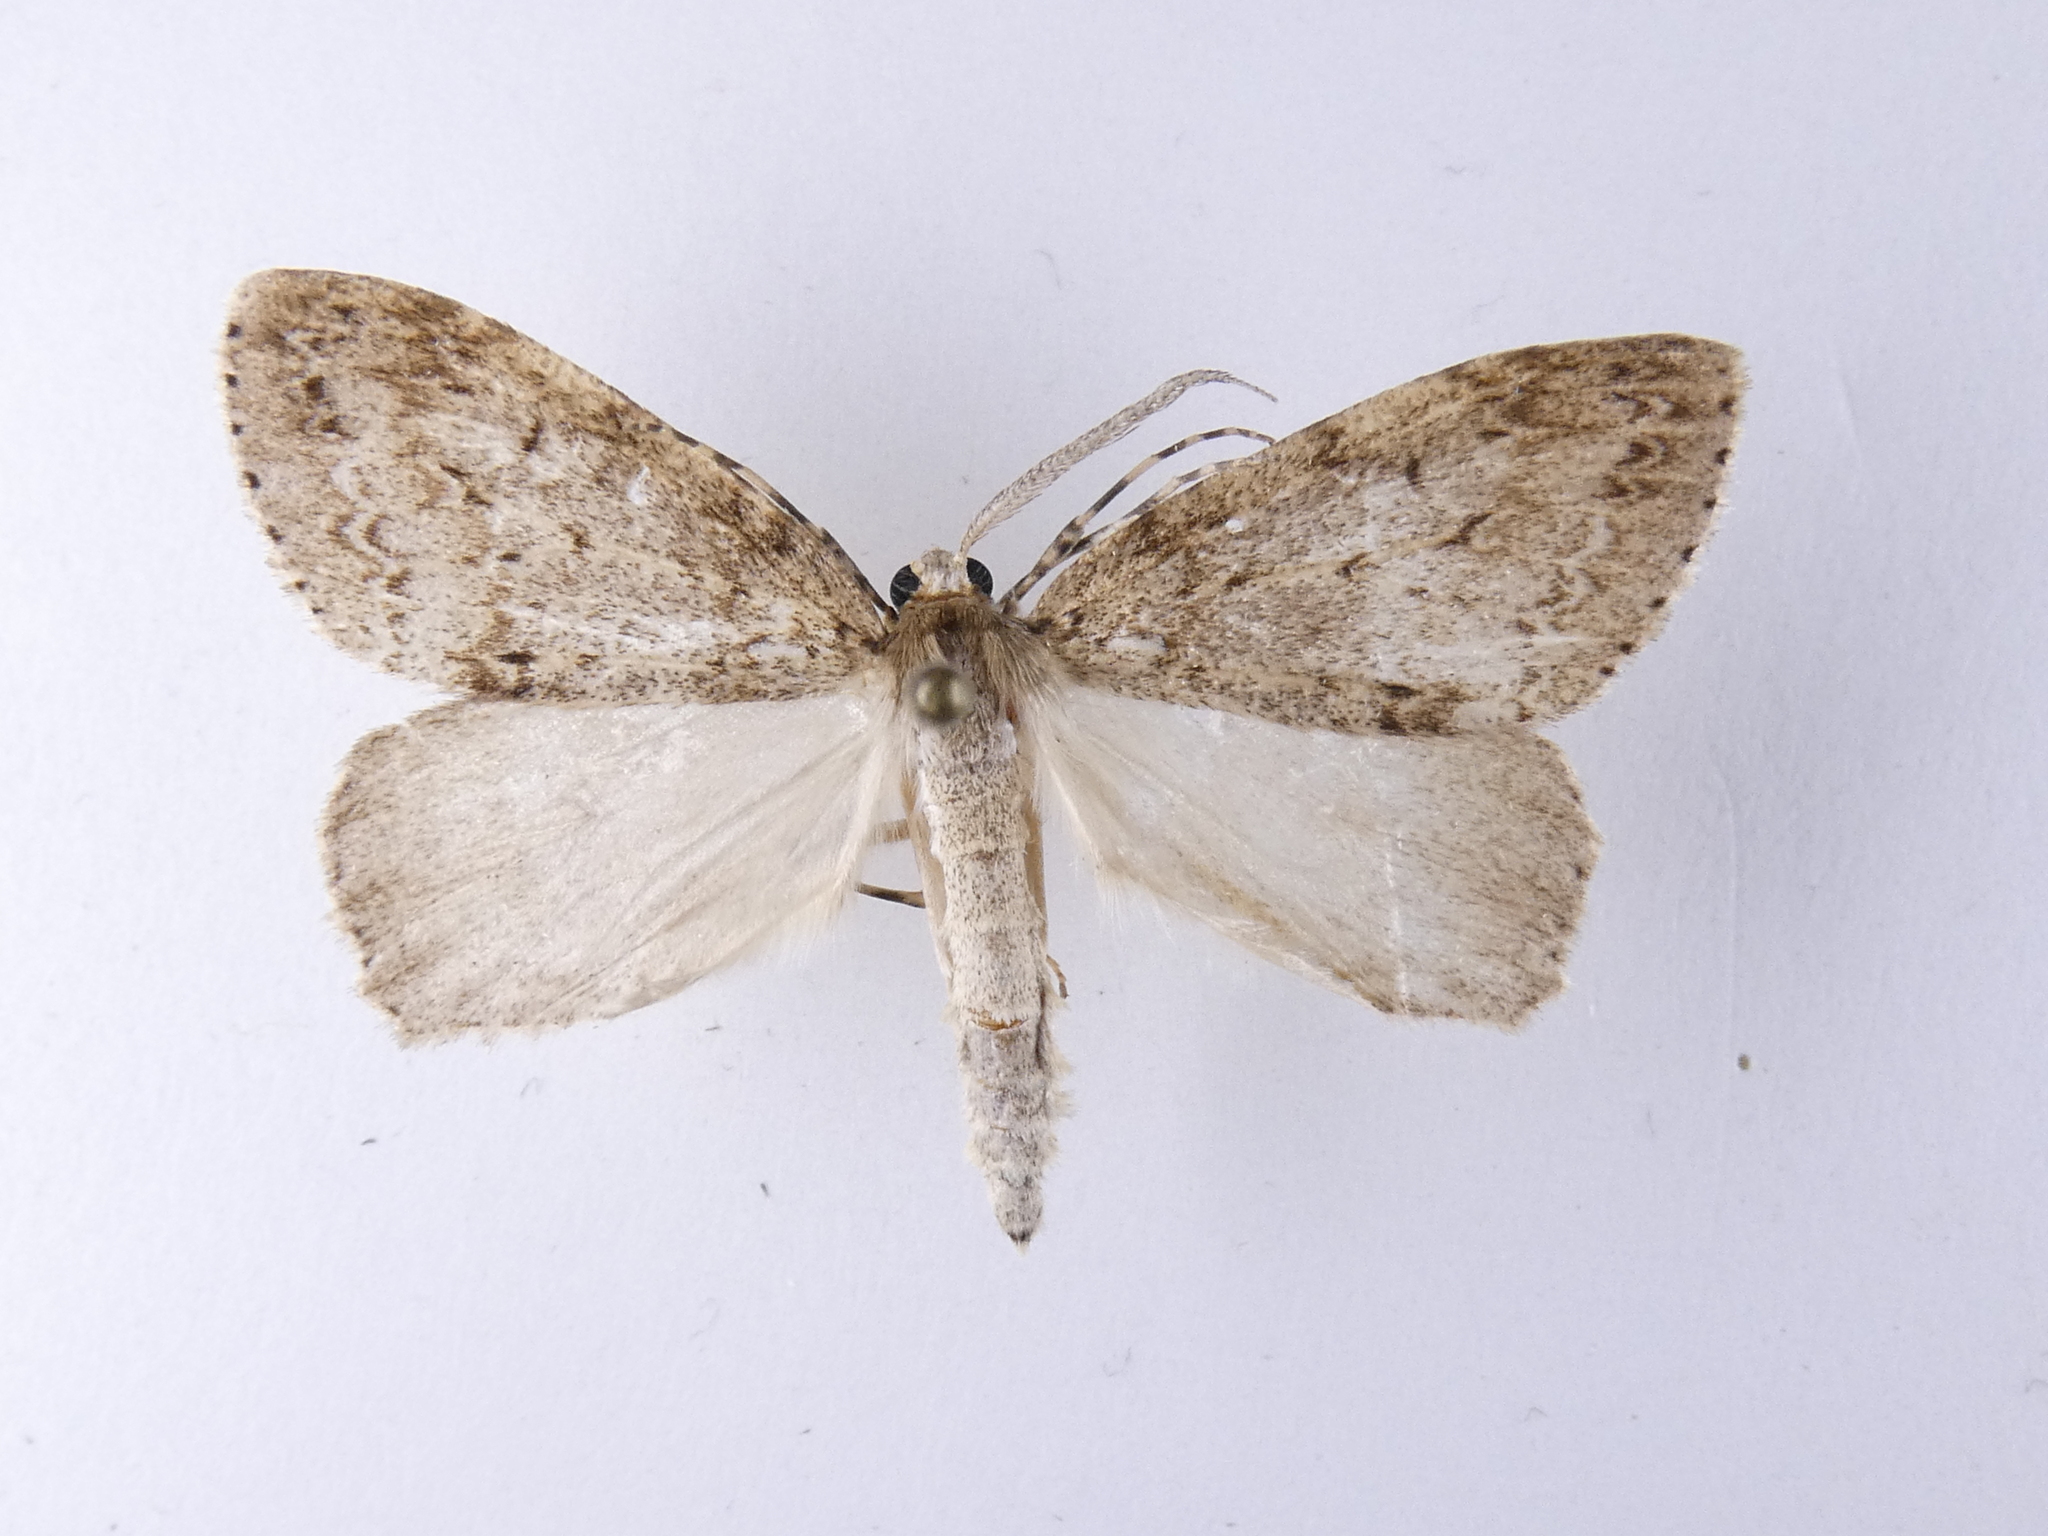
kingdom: Animalia
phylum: Arthropoda
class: Insecta
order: Lepidoptera
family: Geometridae
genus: Pseudocoremia
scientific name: Pseudocoremia fenerata
